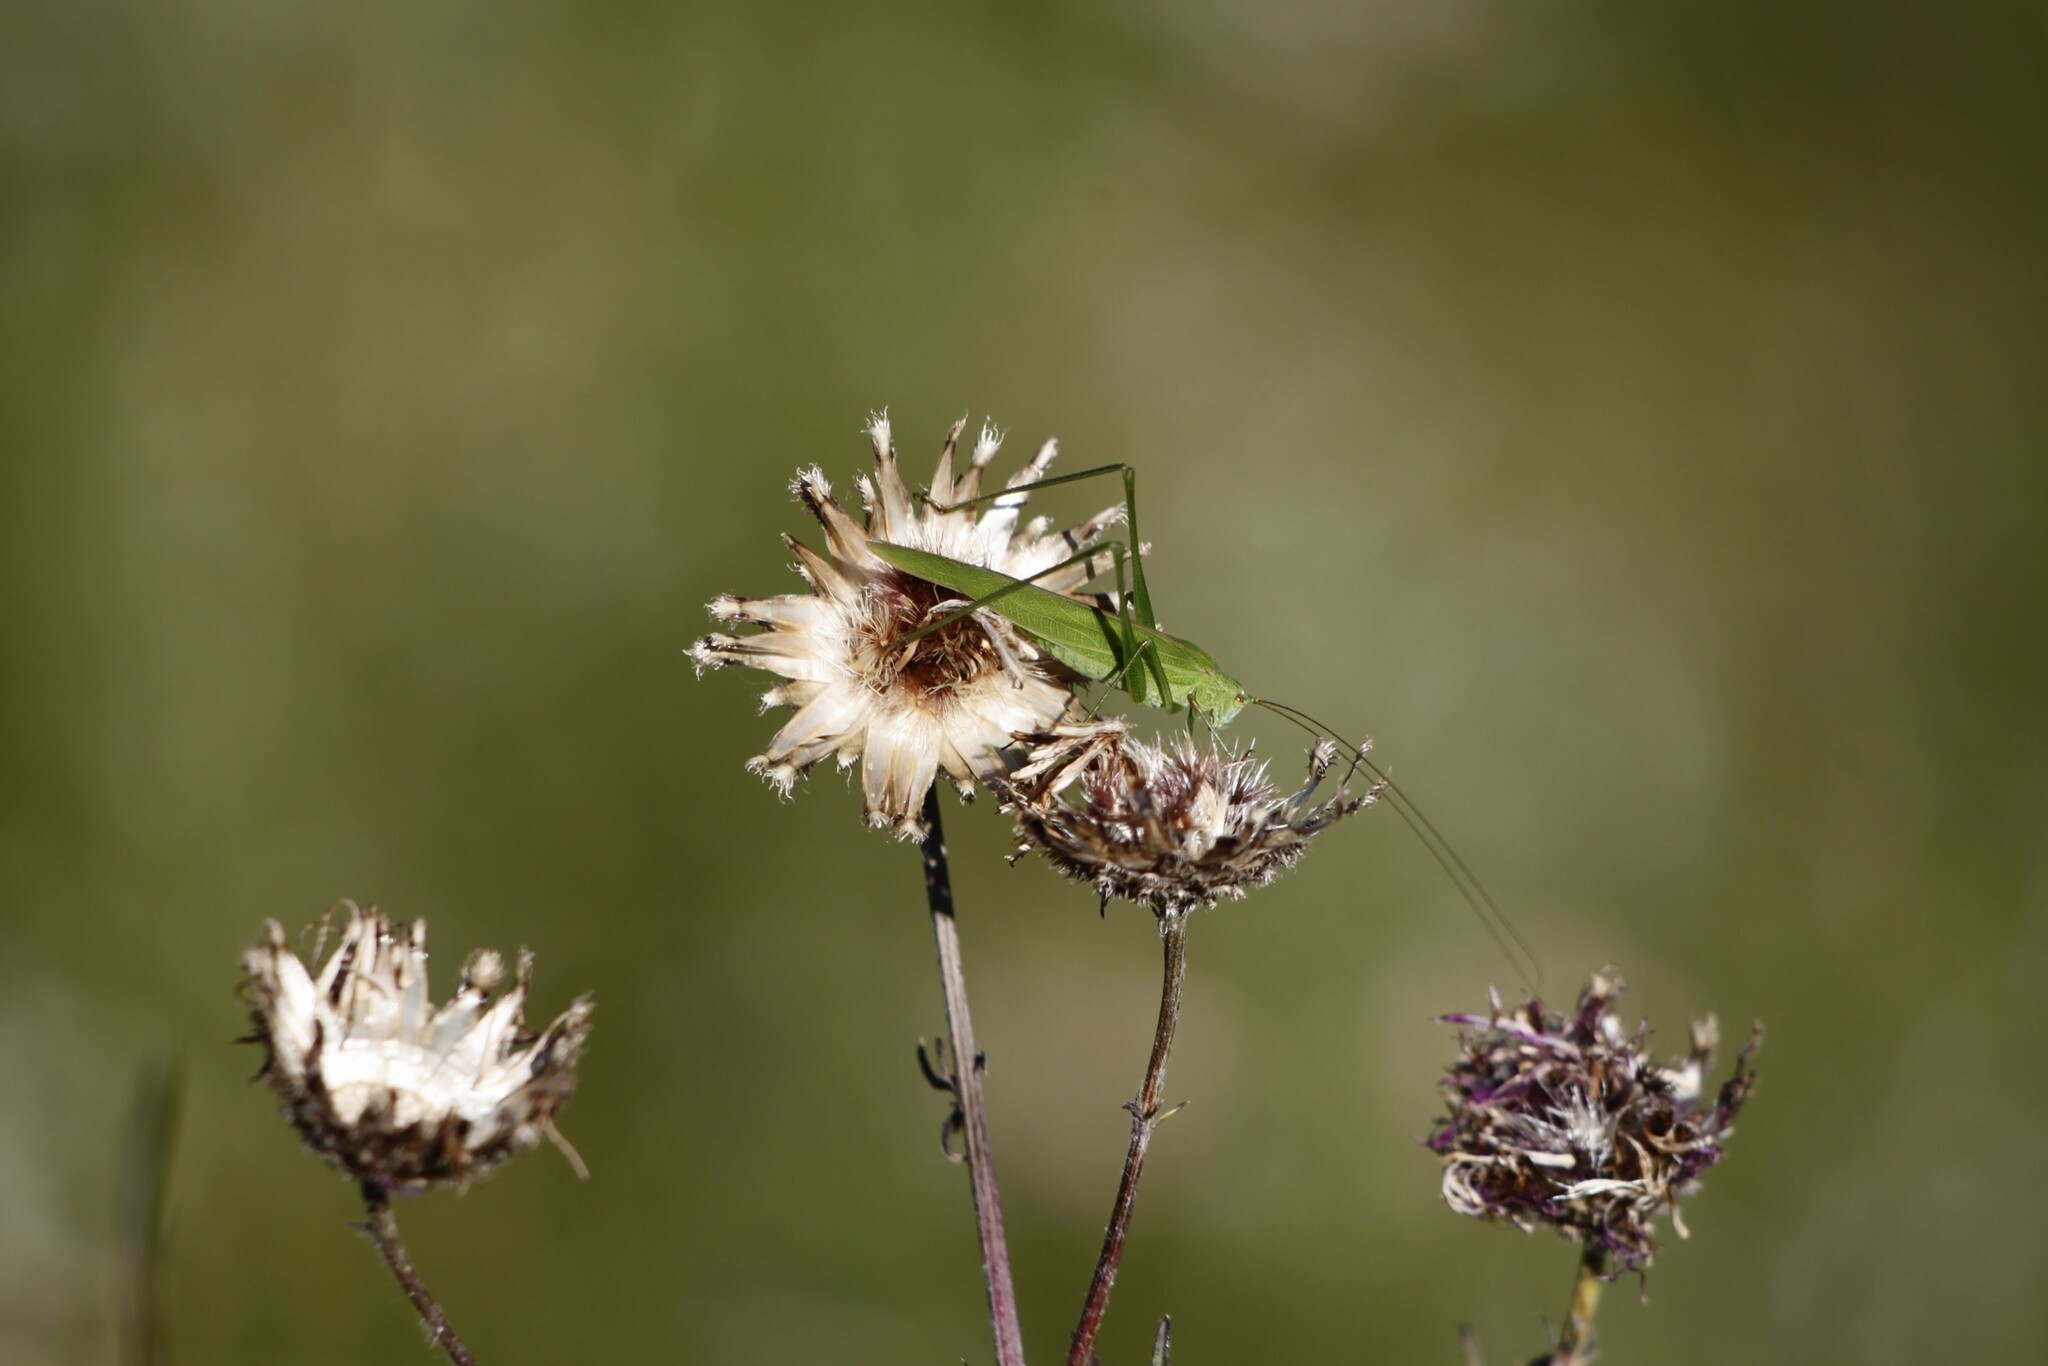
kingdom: Animalia
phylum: Arthropoda
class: Insecta
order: Orthoptera
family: Tettigoniidae
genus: Phaneroptera
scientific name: Phaneroptera falcata
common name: Sickle-bearing bush-cricket
